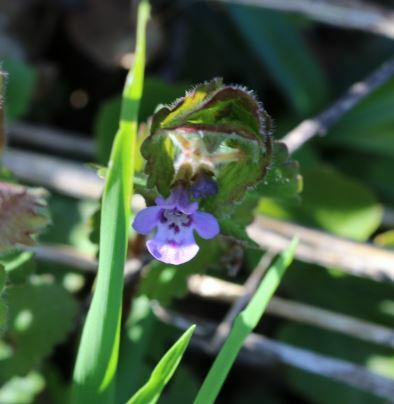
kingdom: Plantae
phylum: Tracheophyta
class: Magnoliopsida
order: Lamiales
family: Lamiaceae
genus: Glechoma
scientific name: Glechoma hederacea
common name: Ground ivy
